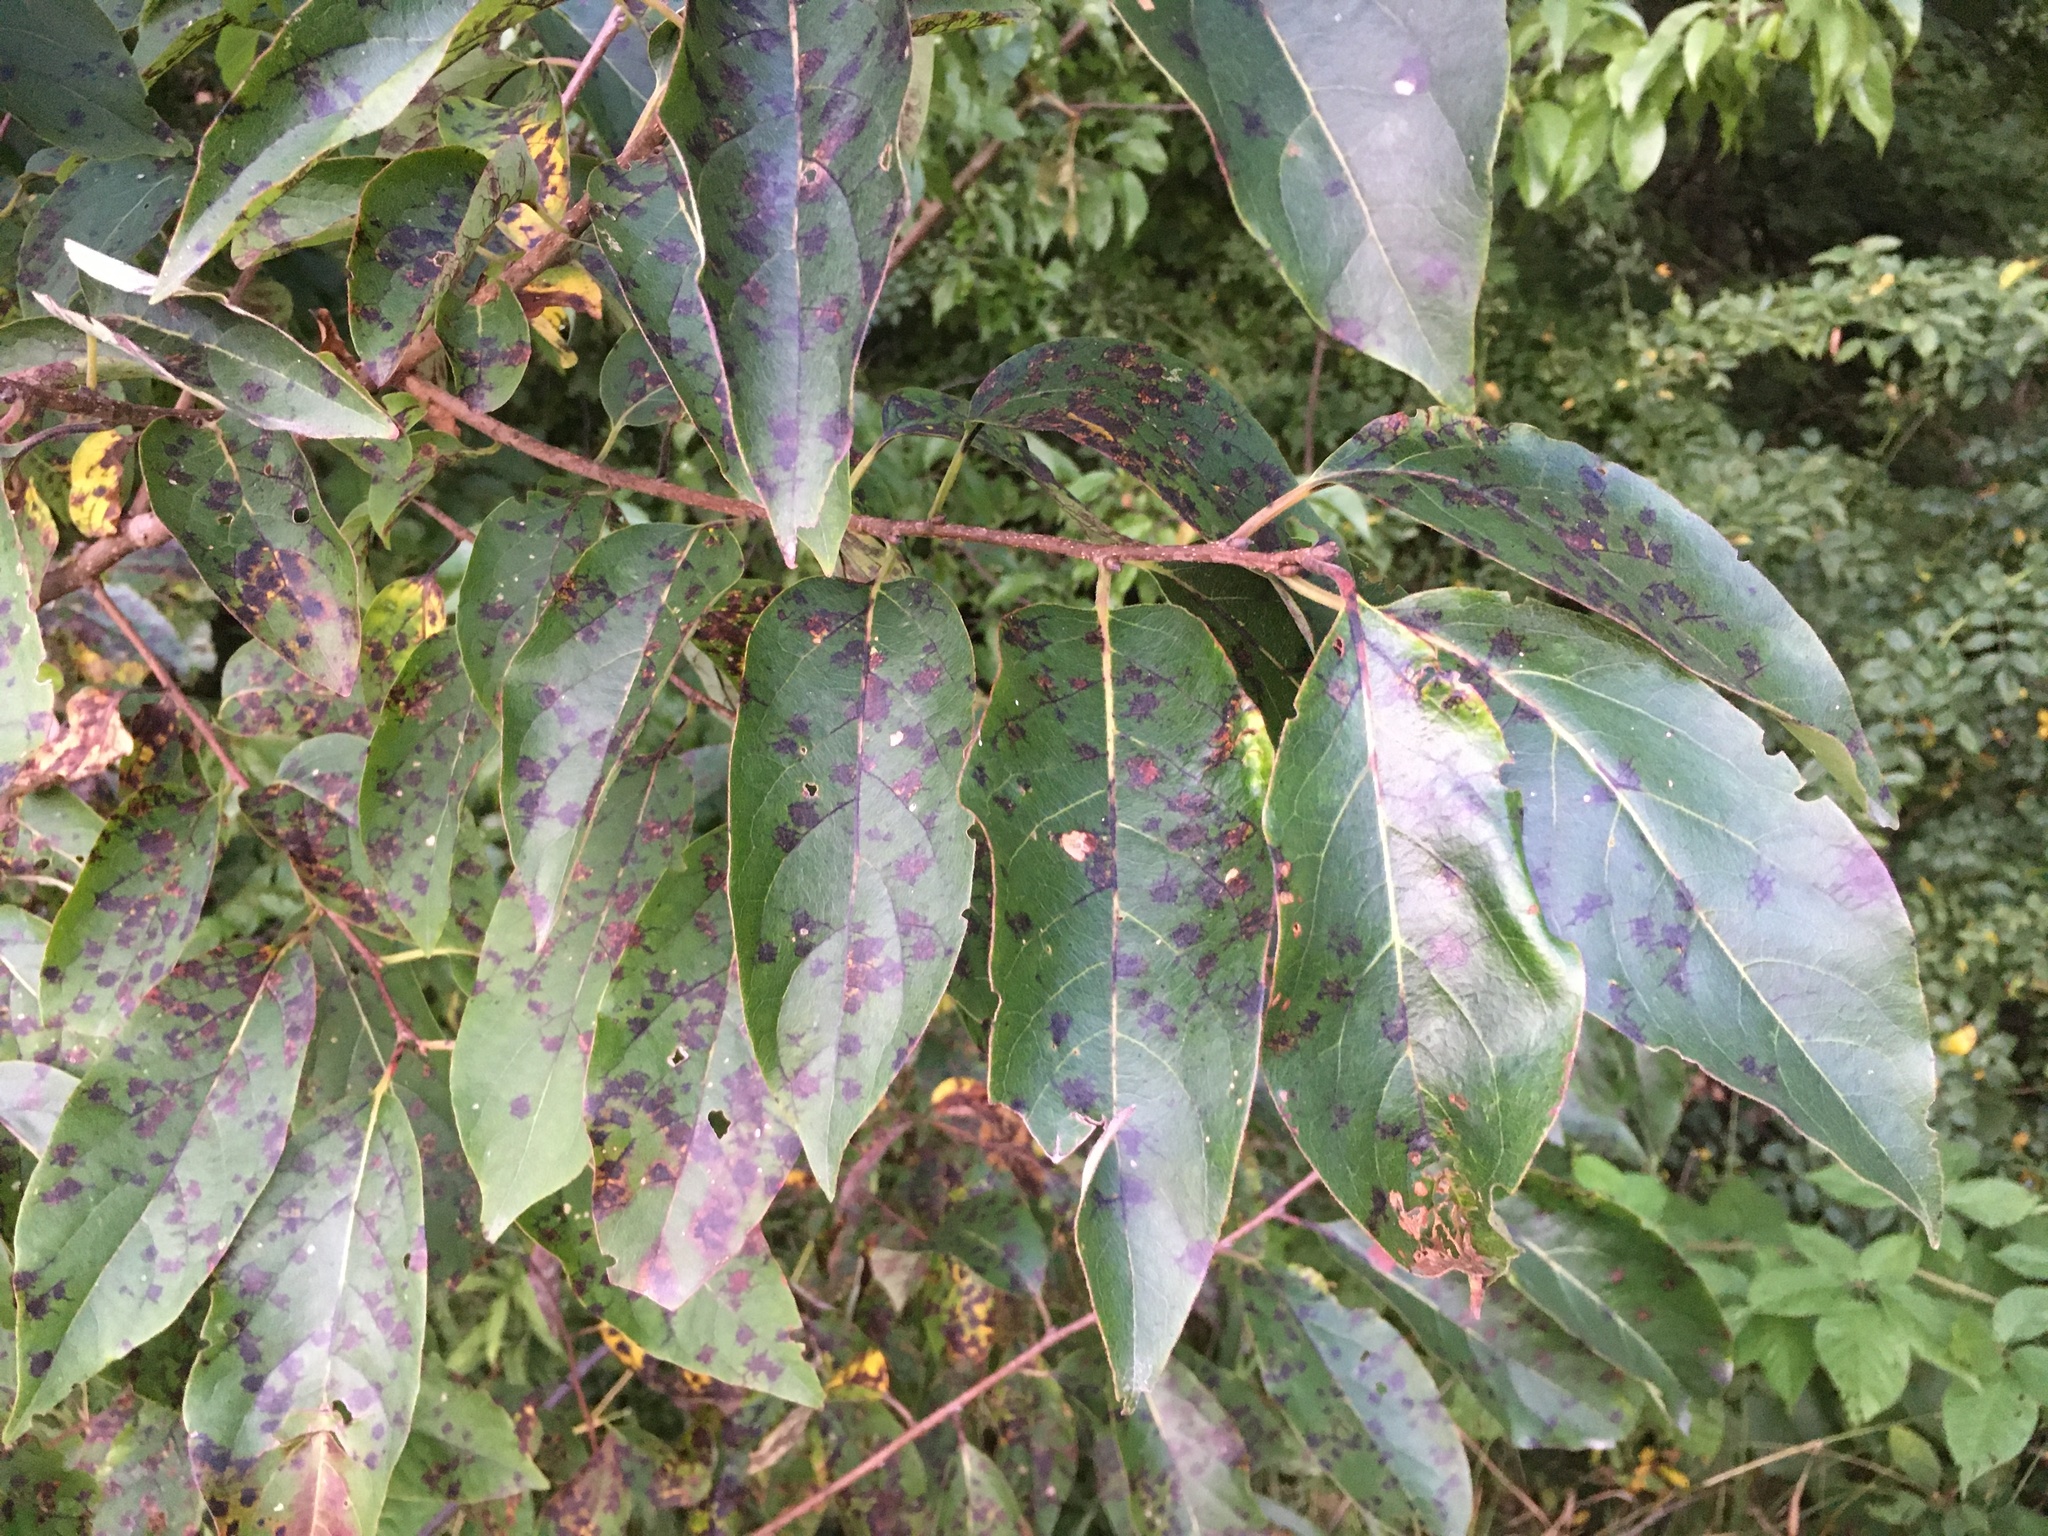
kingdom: Plantae
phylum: Tracheophyta
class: Magnoliopsida
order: Ericales
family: Ebenaceae
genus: Diospyros
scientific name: Diospyros virginiana
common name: Persimmon
